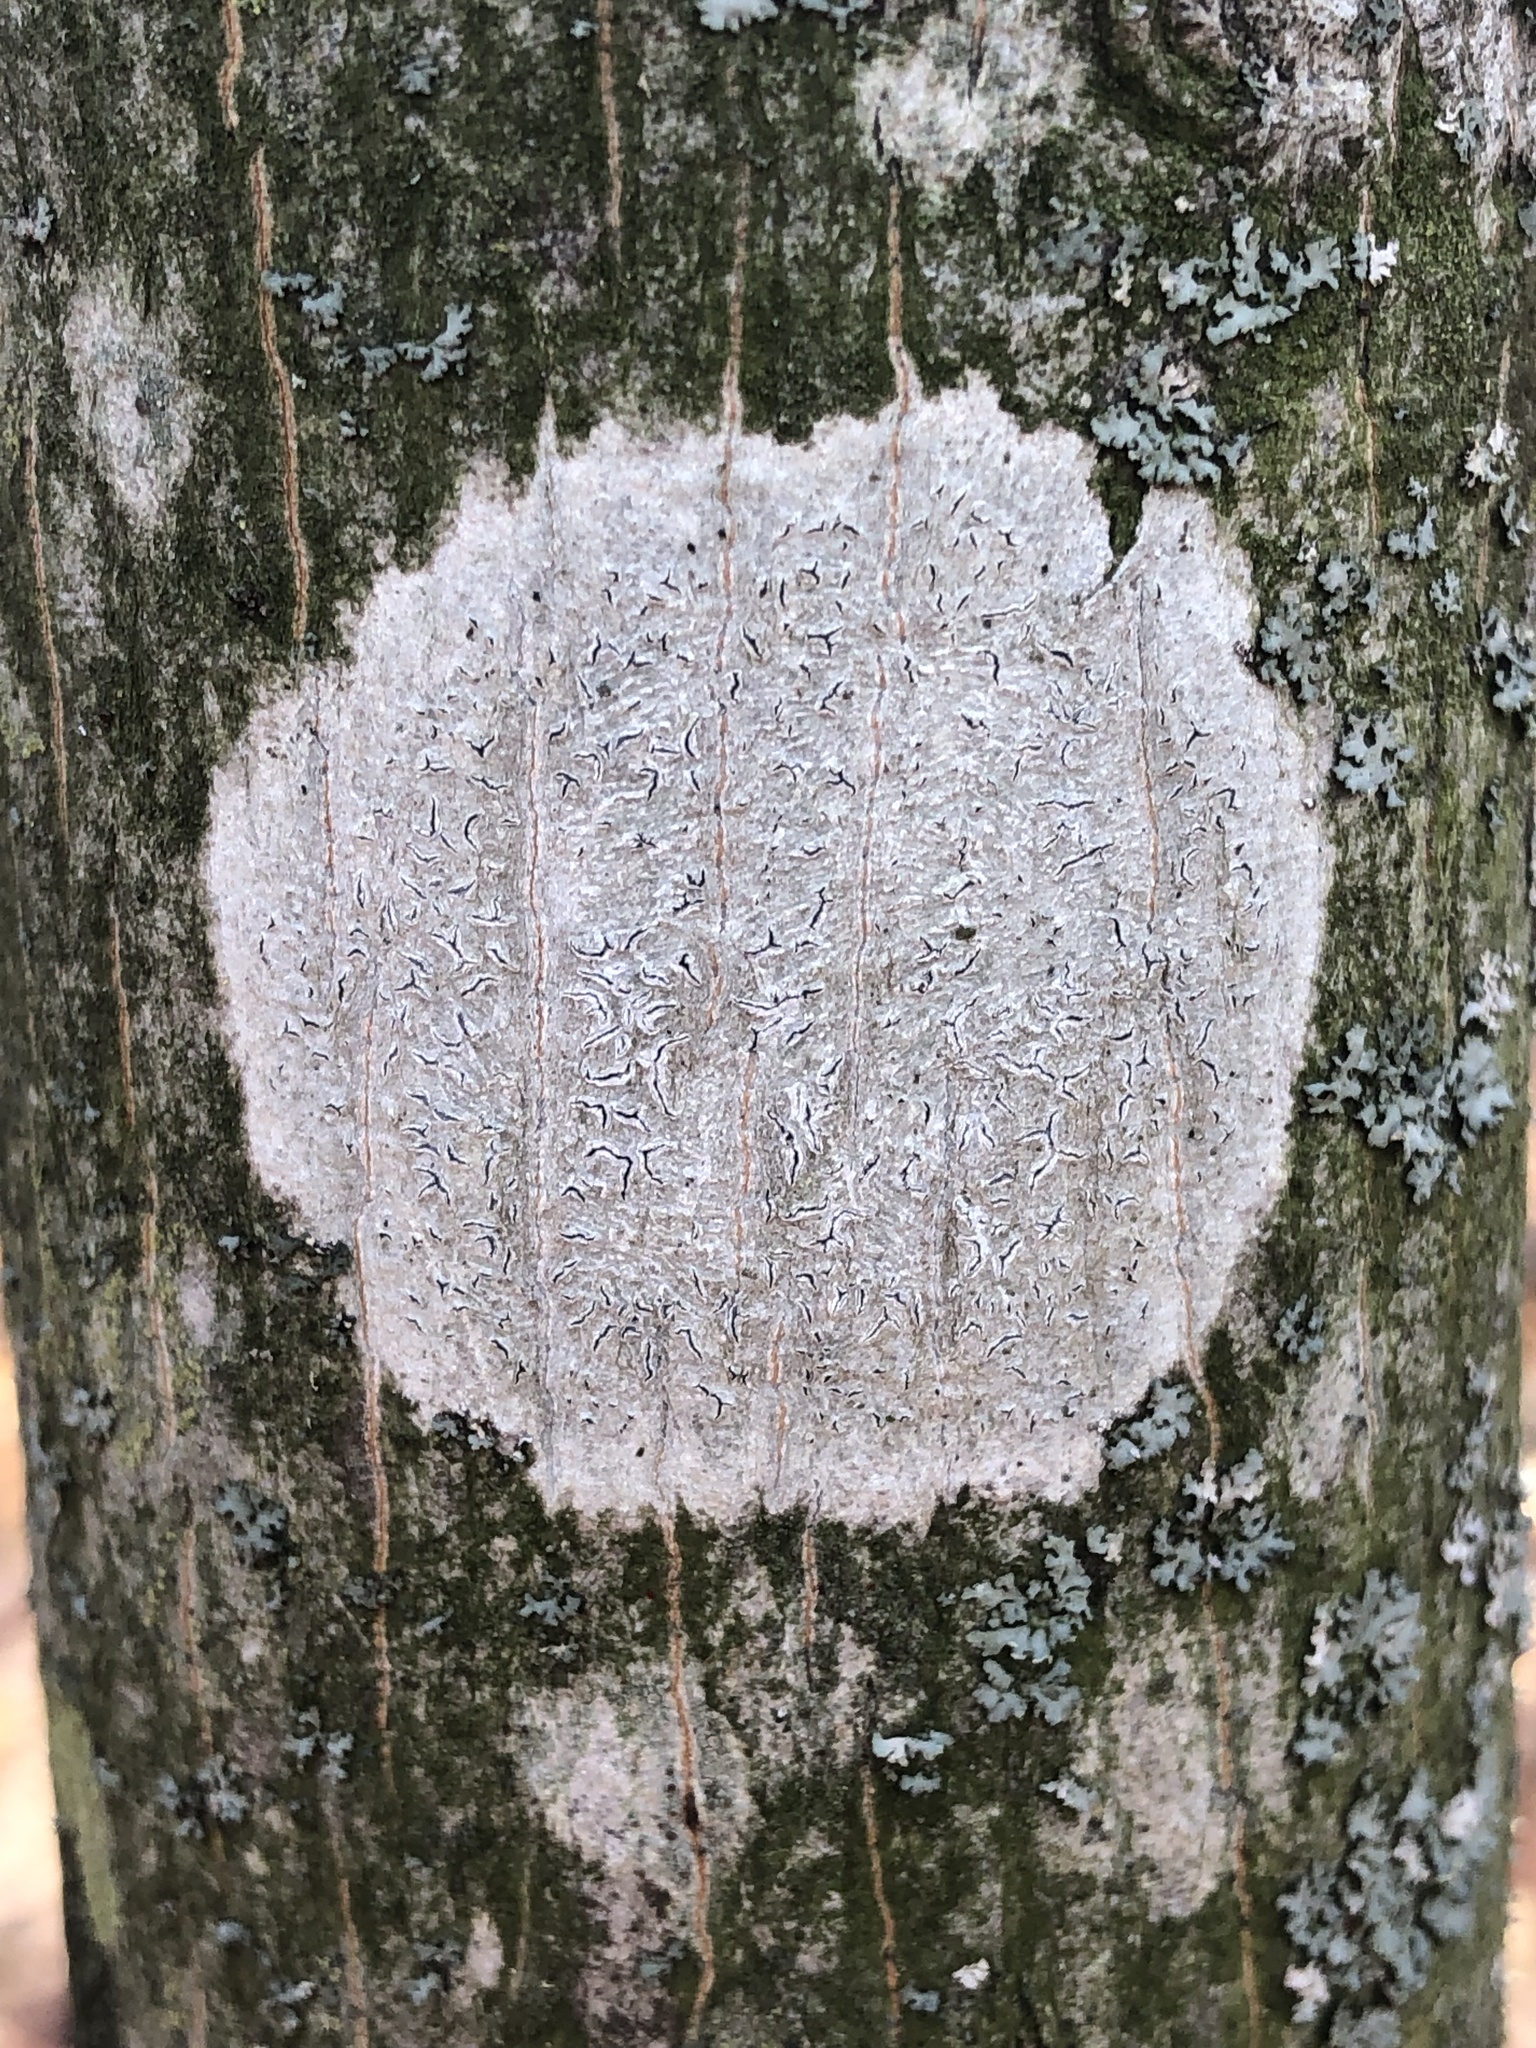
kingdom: Fungi
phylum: Ascomycota
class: Lecanoromycetes
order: Ostropales
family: Graphidaceae
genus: Graphis
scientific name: Graphis scripta
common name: Script lichen
